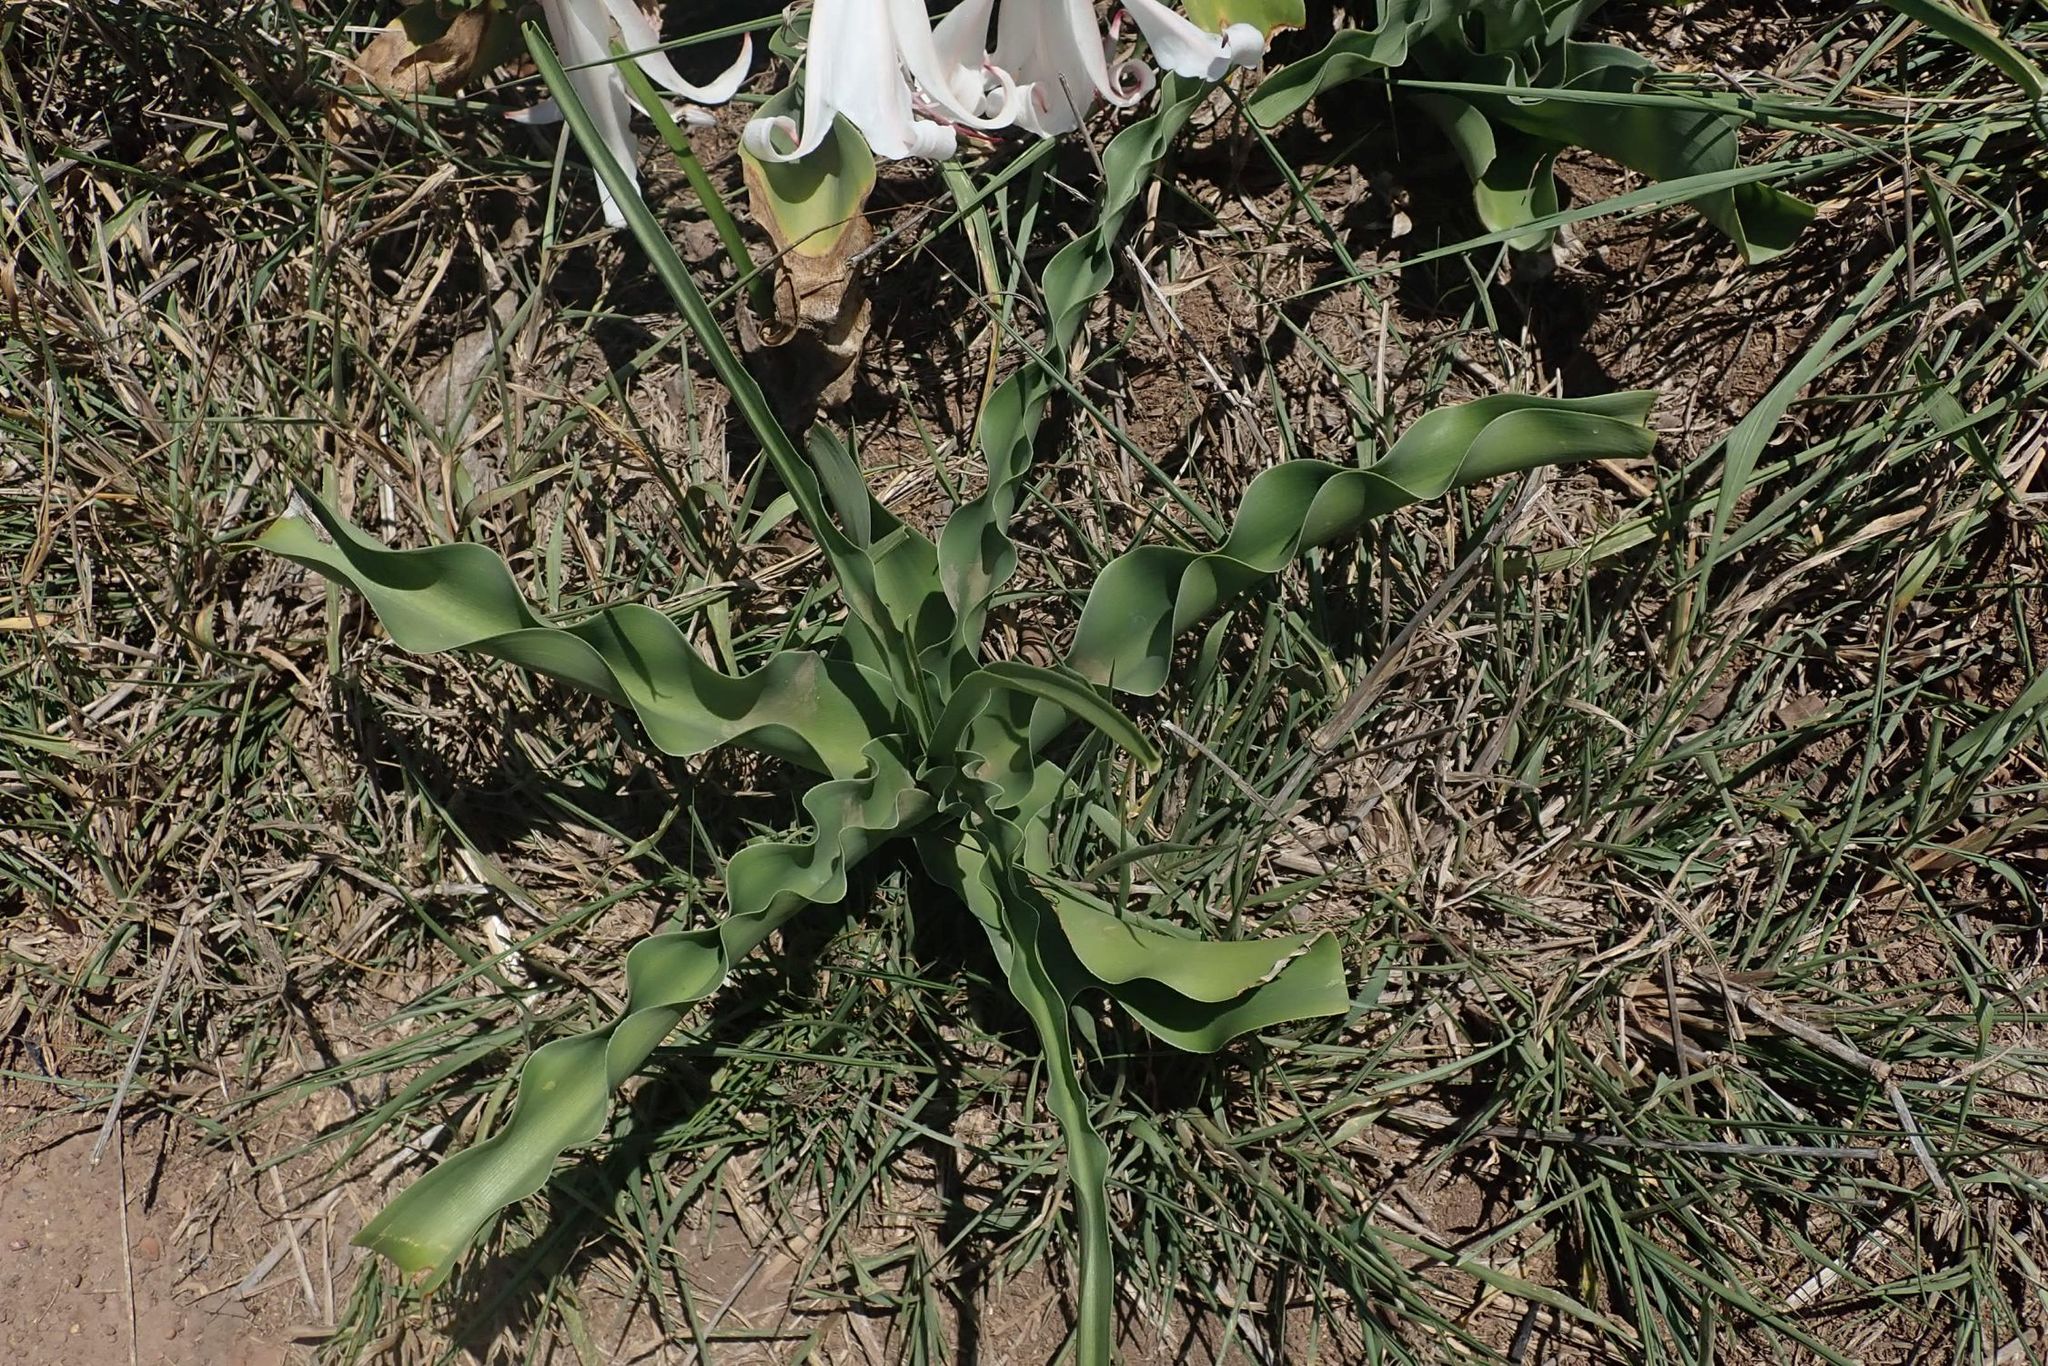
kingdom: Plantae
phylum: Tracheophyta
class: Liliopsida
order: Asparagales
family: Amaryllidaceae
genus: Crinum
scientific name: Crinum macowanii
